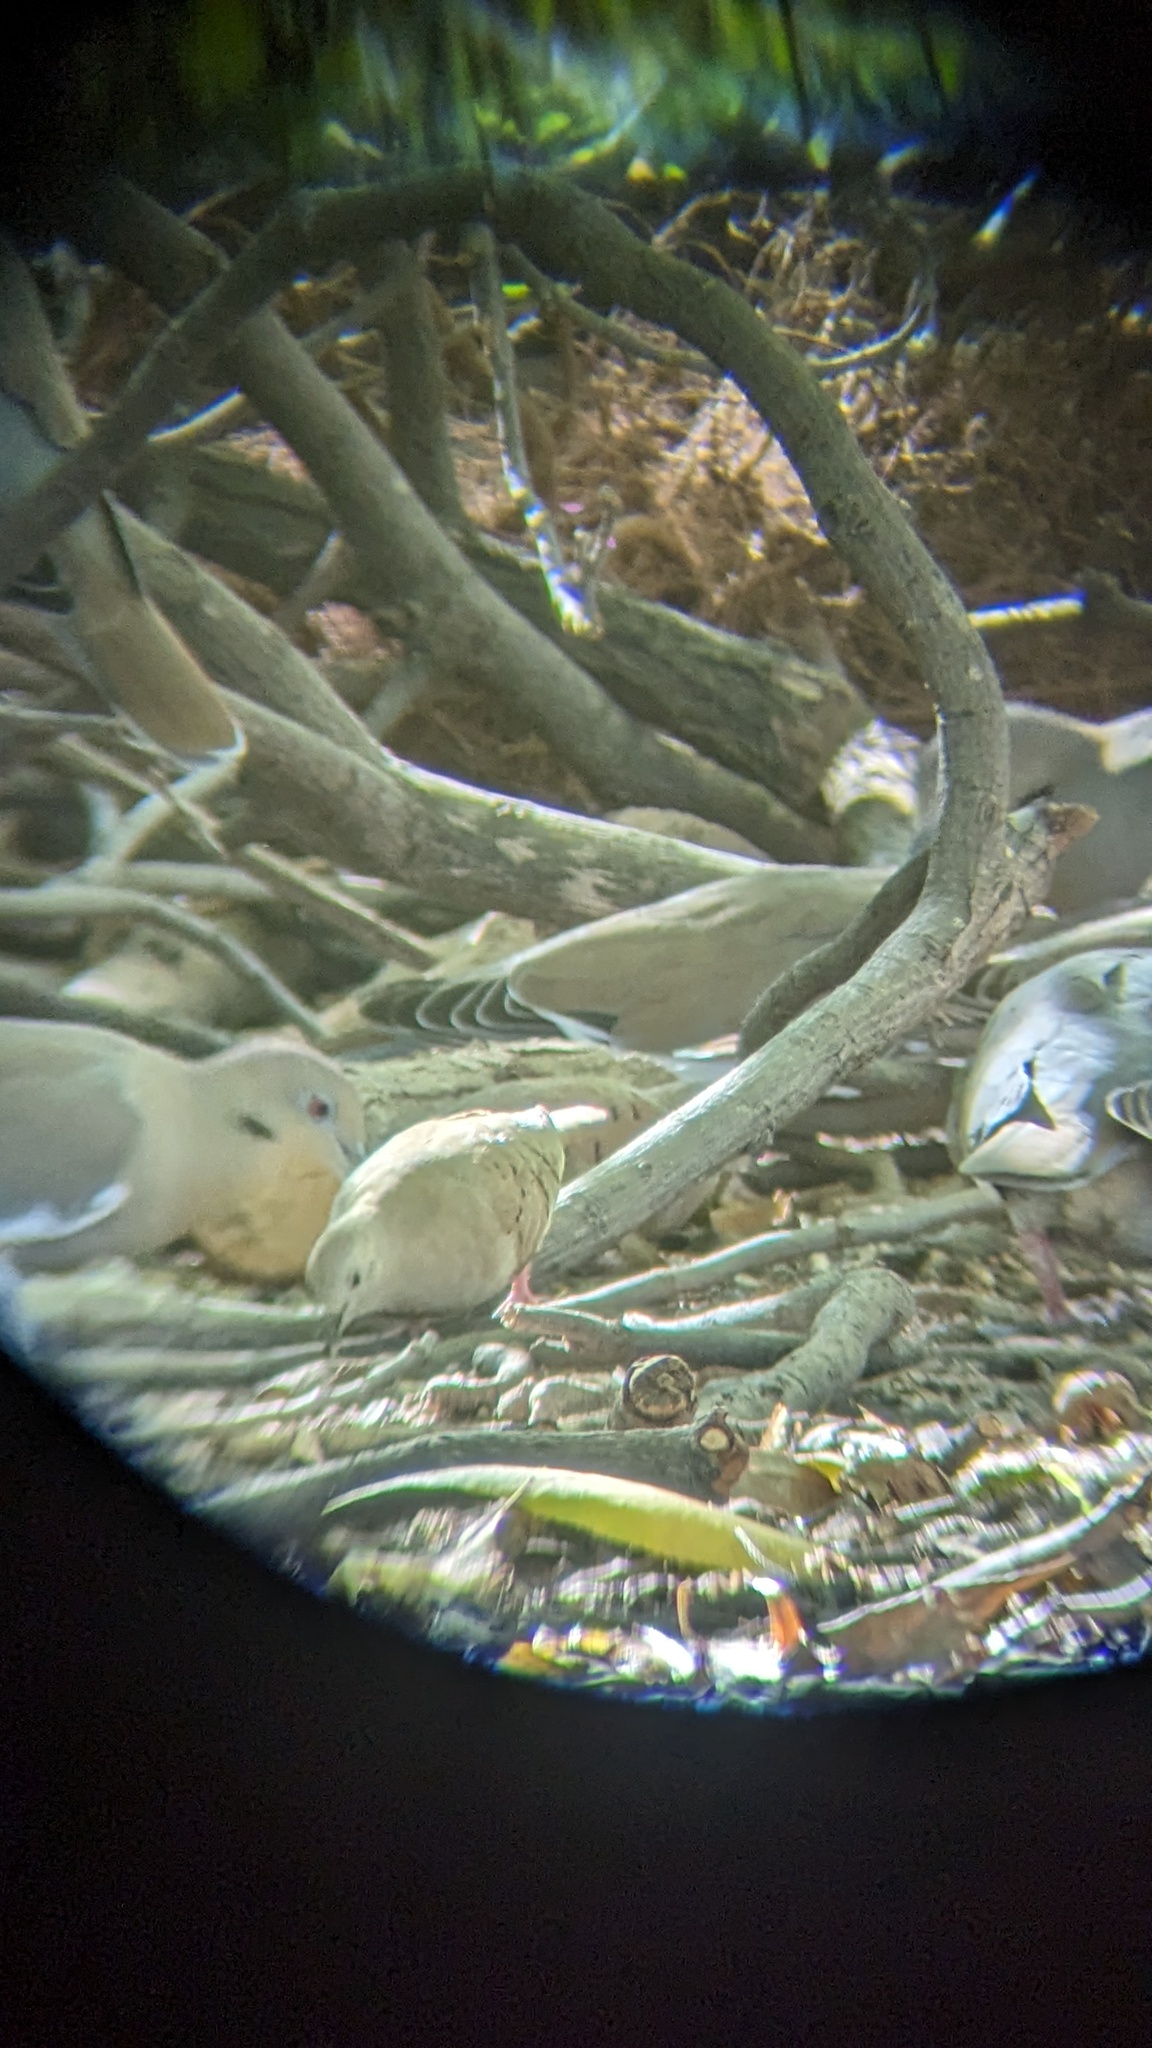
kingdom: Animalia
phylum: Chordata
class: Aves
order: Columbiformes
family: Columbidae
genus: Columbina
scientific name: Columbina talpacoti
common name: Ruddy ground dove
